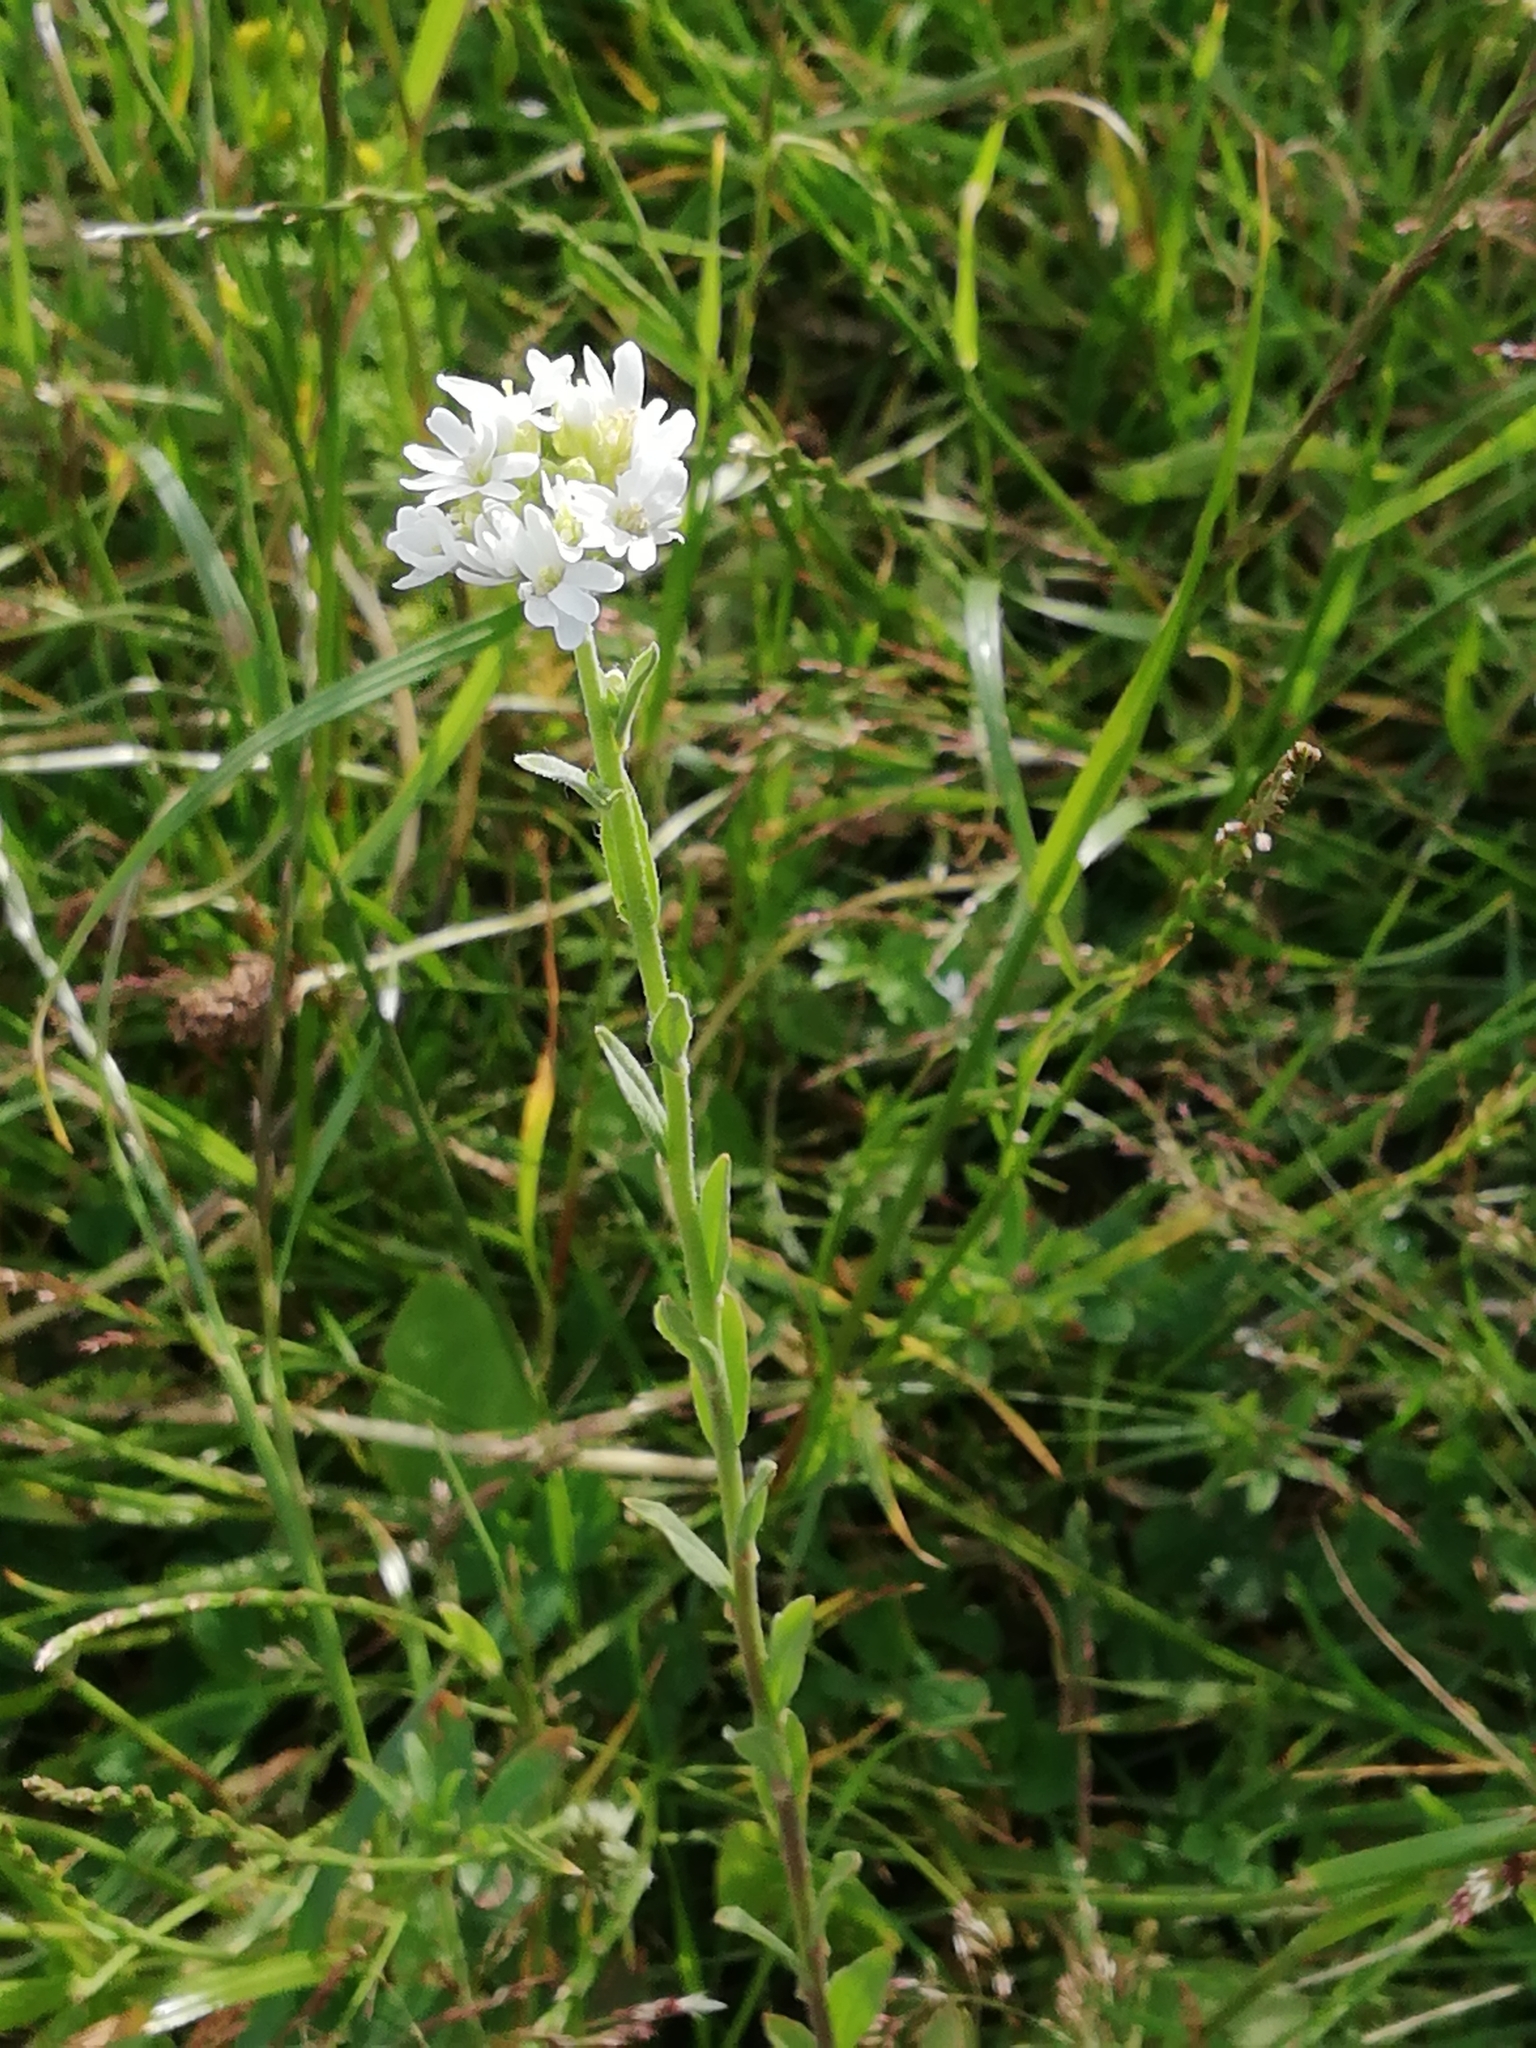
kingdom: Plantae
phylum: Tracheophyta
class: Magnoliopsida
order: Brassicales
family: Brassicaceae
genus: Berteroa
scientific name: Berteroa incana
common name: Hoary alison
